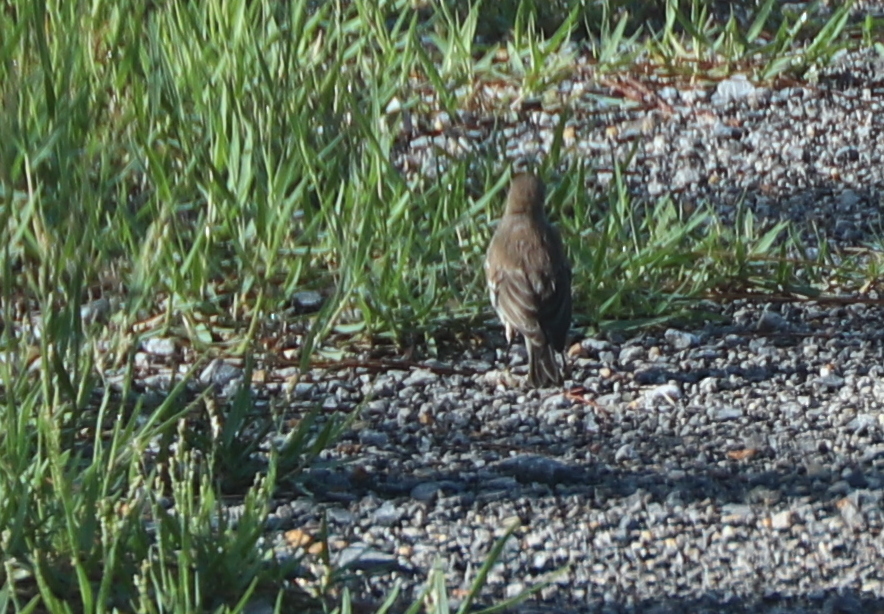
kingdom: Animalia
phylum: Chordata
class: Aves
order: Passeriformes
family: Fringillidae
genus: Haemorhous
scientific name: Haemorhous mexicanus
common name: House finch
